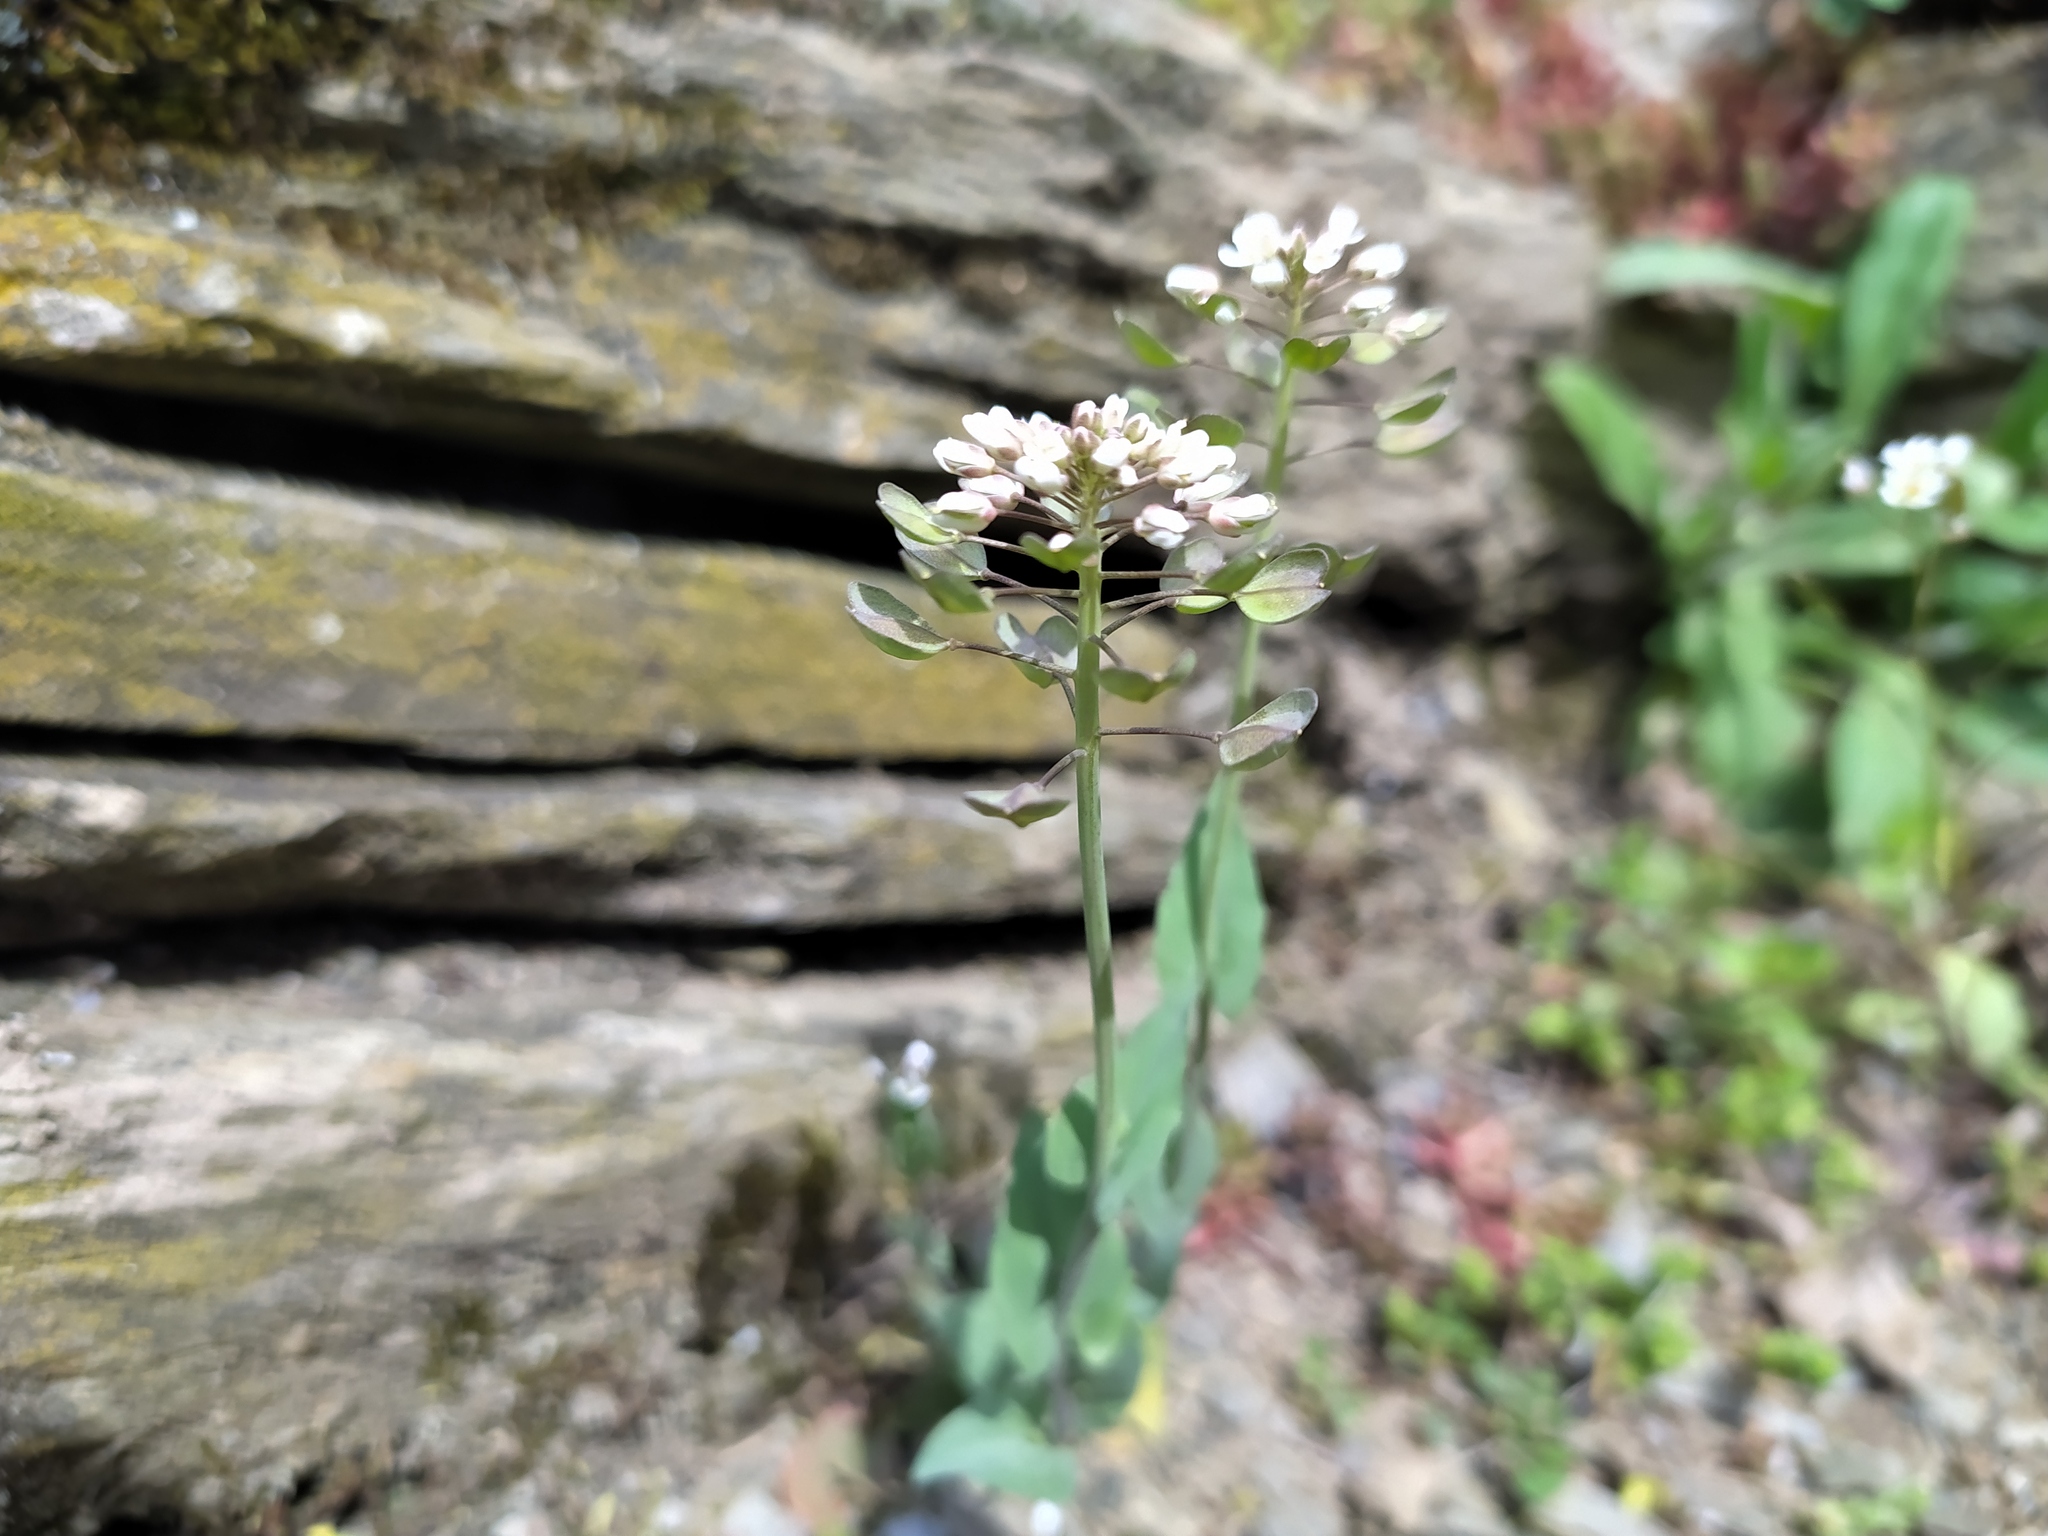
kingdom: Plantae
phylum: Tracheophyta
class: Magnoliopsida
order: Brassicales
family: Brassicaceae
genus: Noccaea
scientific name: Noccaea perfoliata
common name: Perfoliate pennycress
